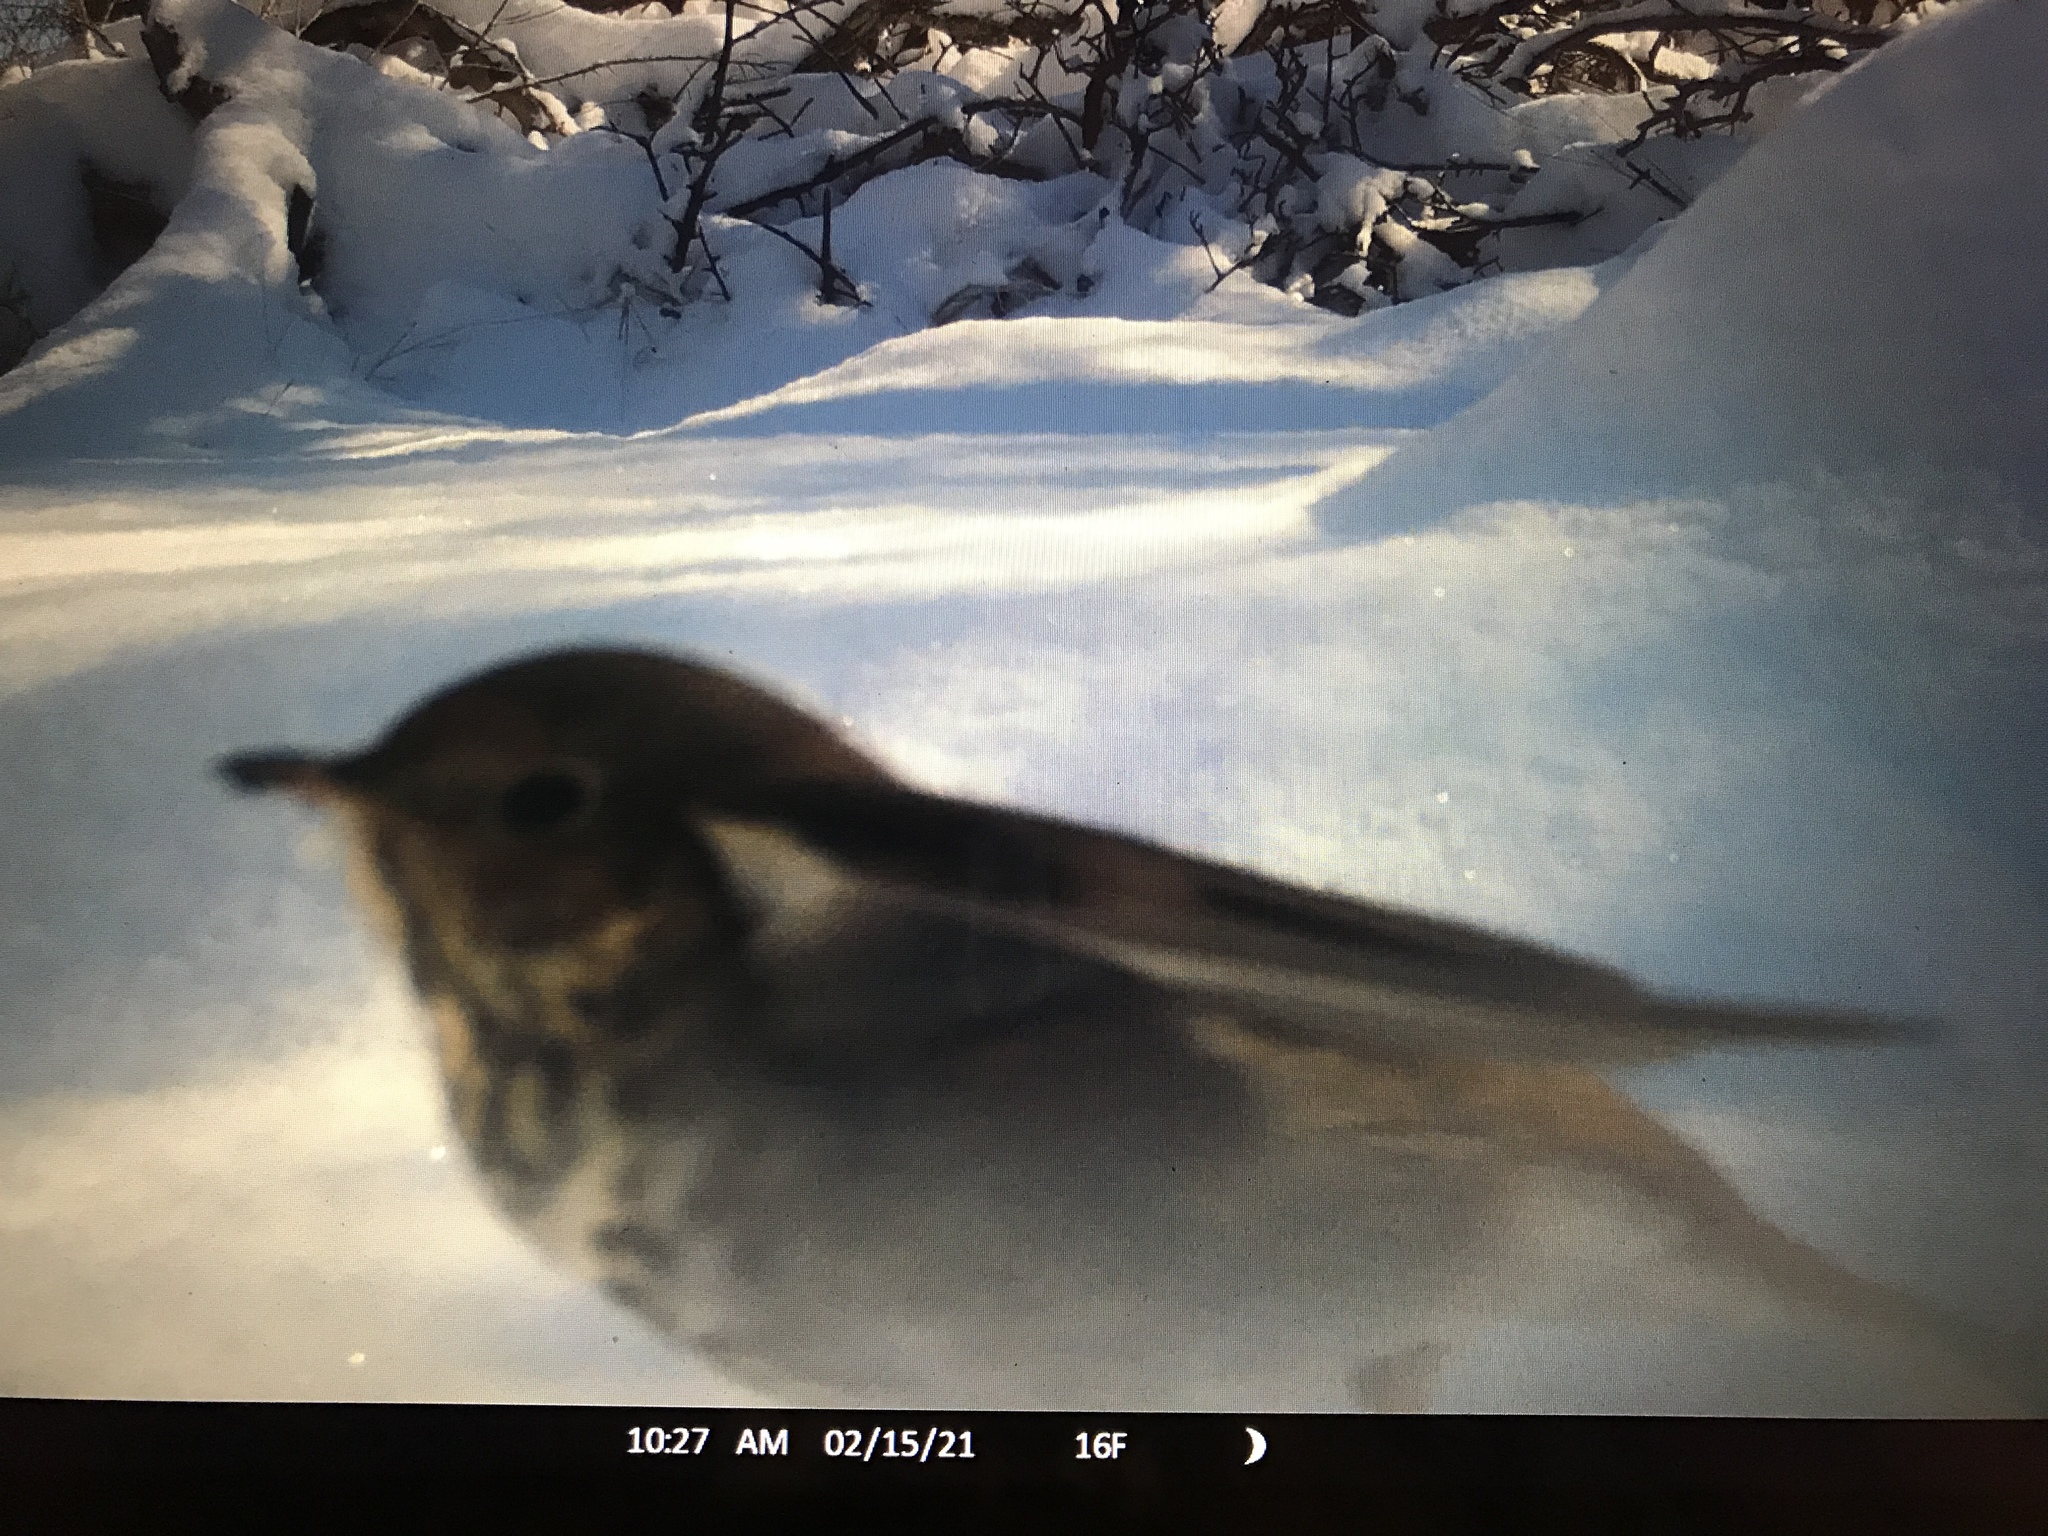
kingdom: Animalia
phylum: Chordata
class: Aves
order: Passeriformes
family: Turdidae
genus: Catharus
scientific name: Catharus guttatus
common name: Hermit thrush
